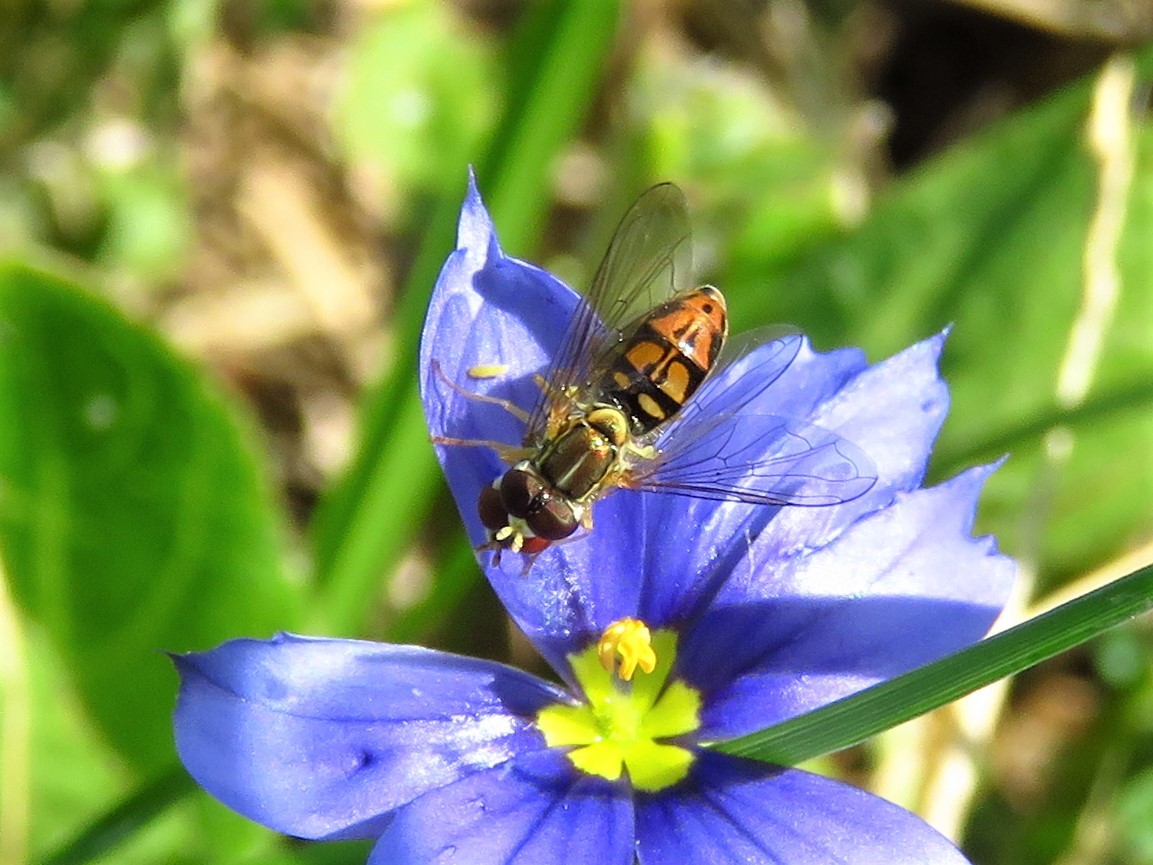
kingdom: Animalia
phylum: Arthropoda
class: Insecta
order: Diptera
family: Syrphidae
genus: Toxomerus
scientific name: Toxomerus marginatus
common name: Syrphid fly
